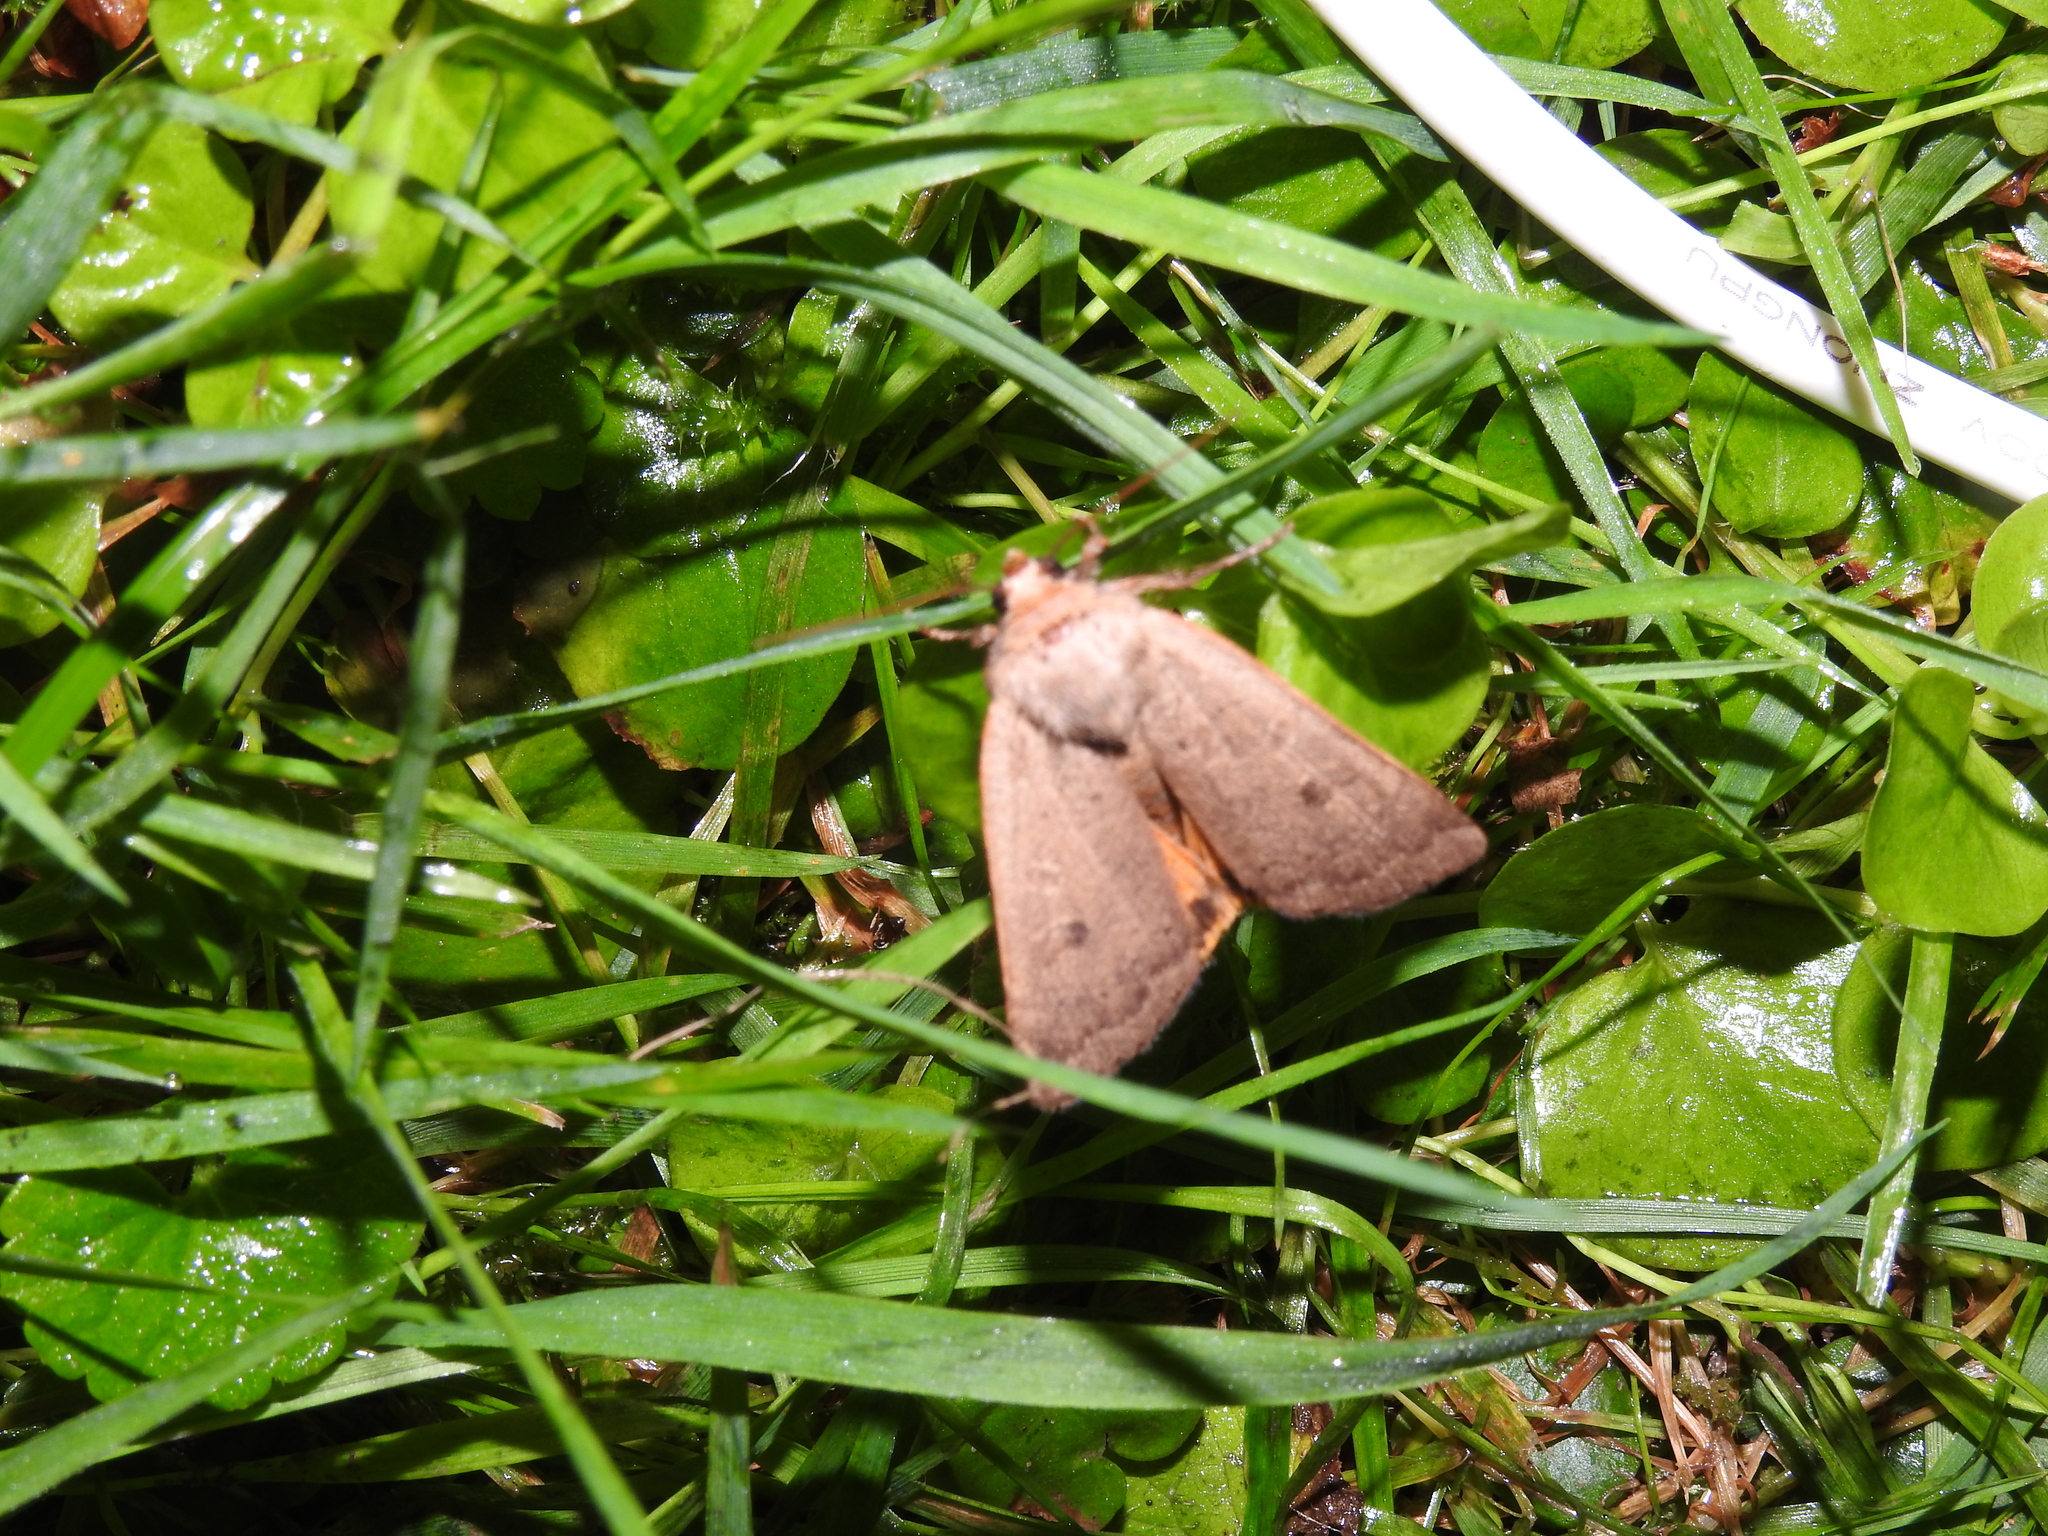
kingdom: Animalia
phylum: Arthropoda
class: Insecta
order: Lepidoptera
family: Noctuidae
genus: Noctua
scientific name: Noctua comes
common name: Lesser yellow underwing
